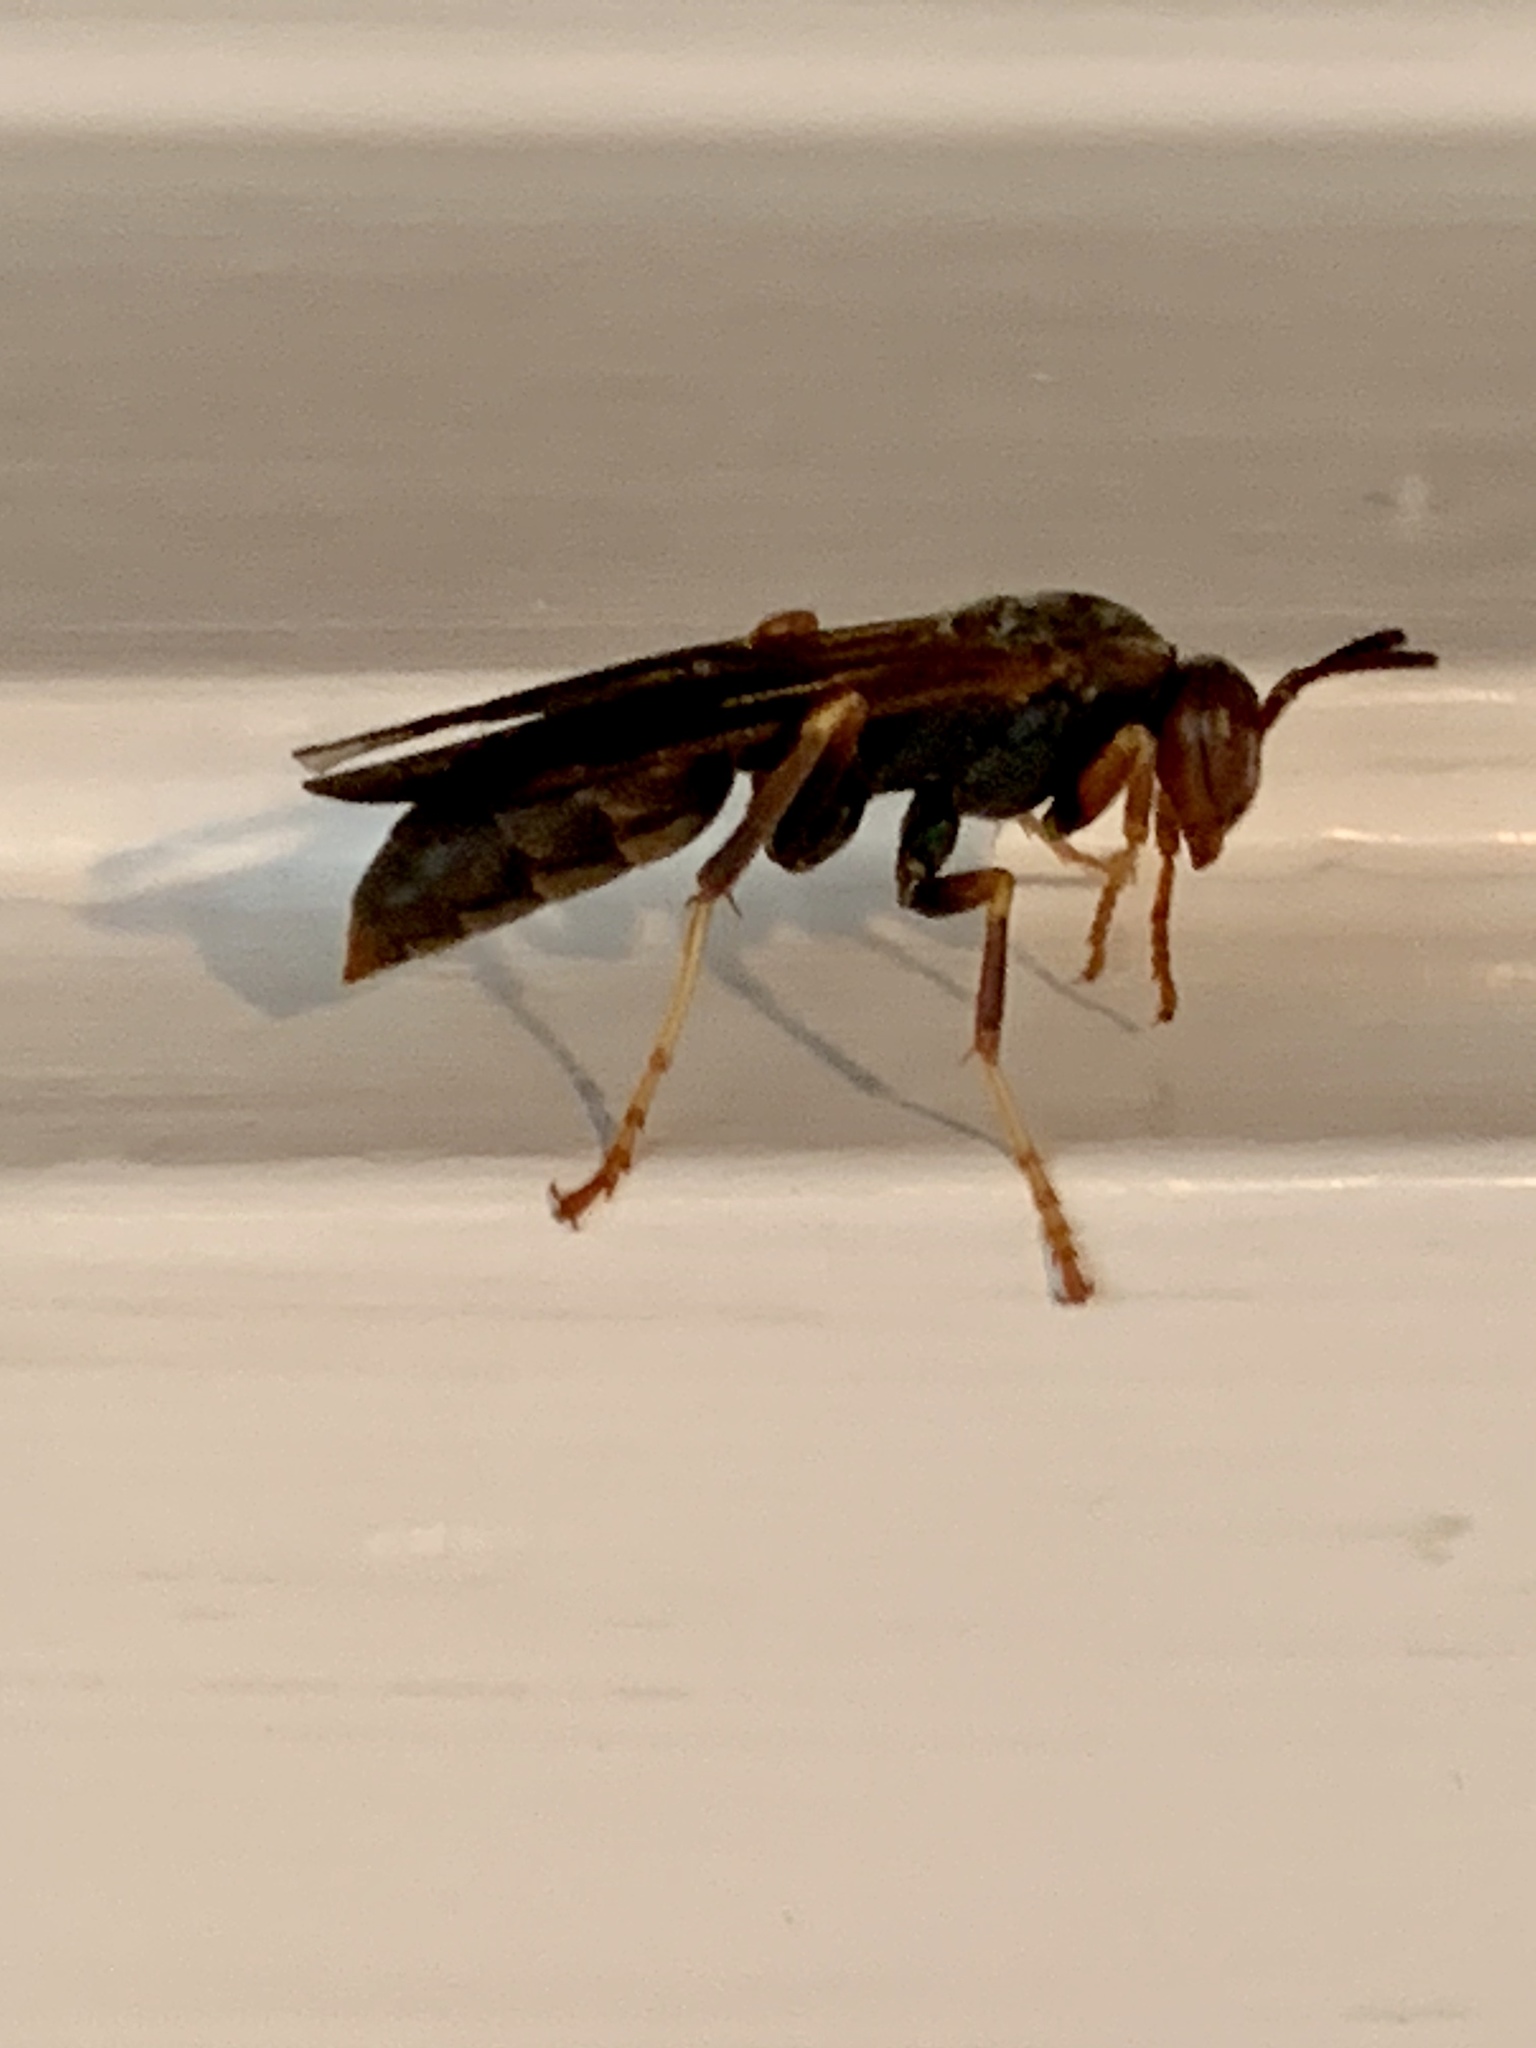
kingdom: Animalia
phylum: Arthropoda
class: Insecta
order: Hymenoptera
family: Eumenidae
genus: Polistes
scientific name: Polistes fuscatus
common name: Dark paper wasp
